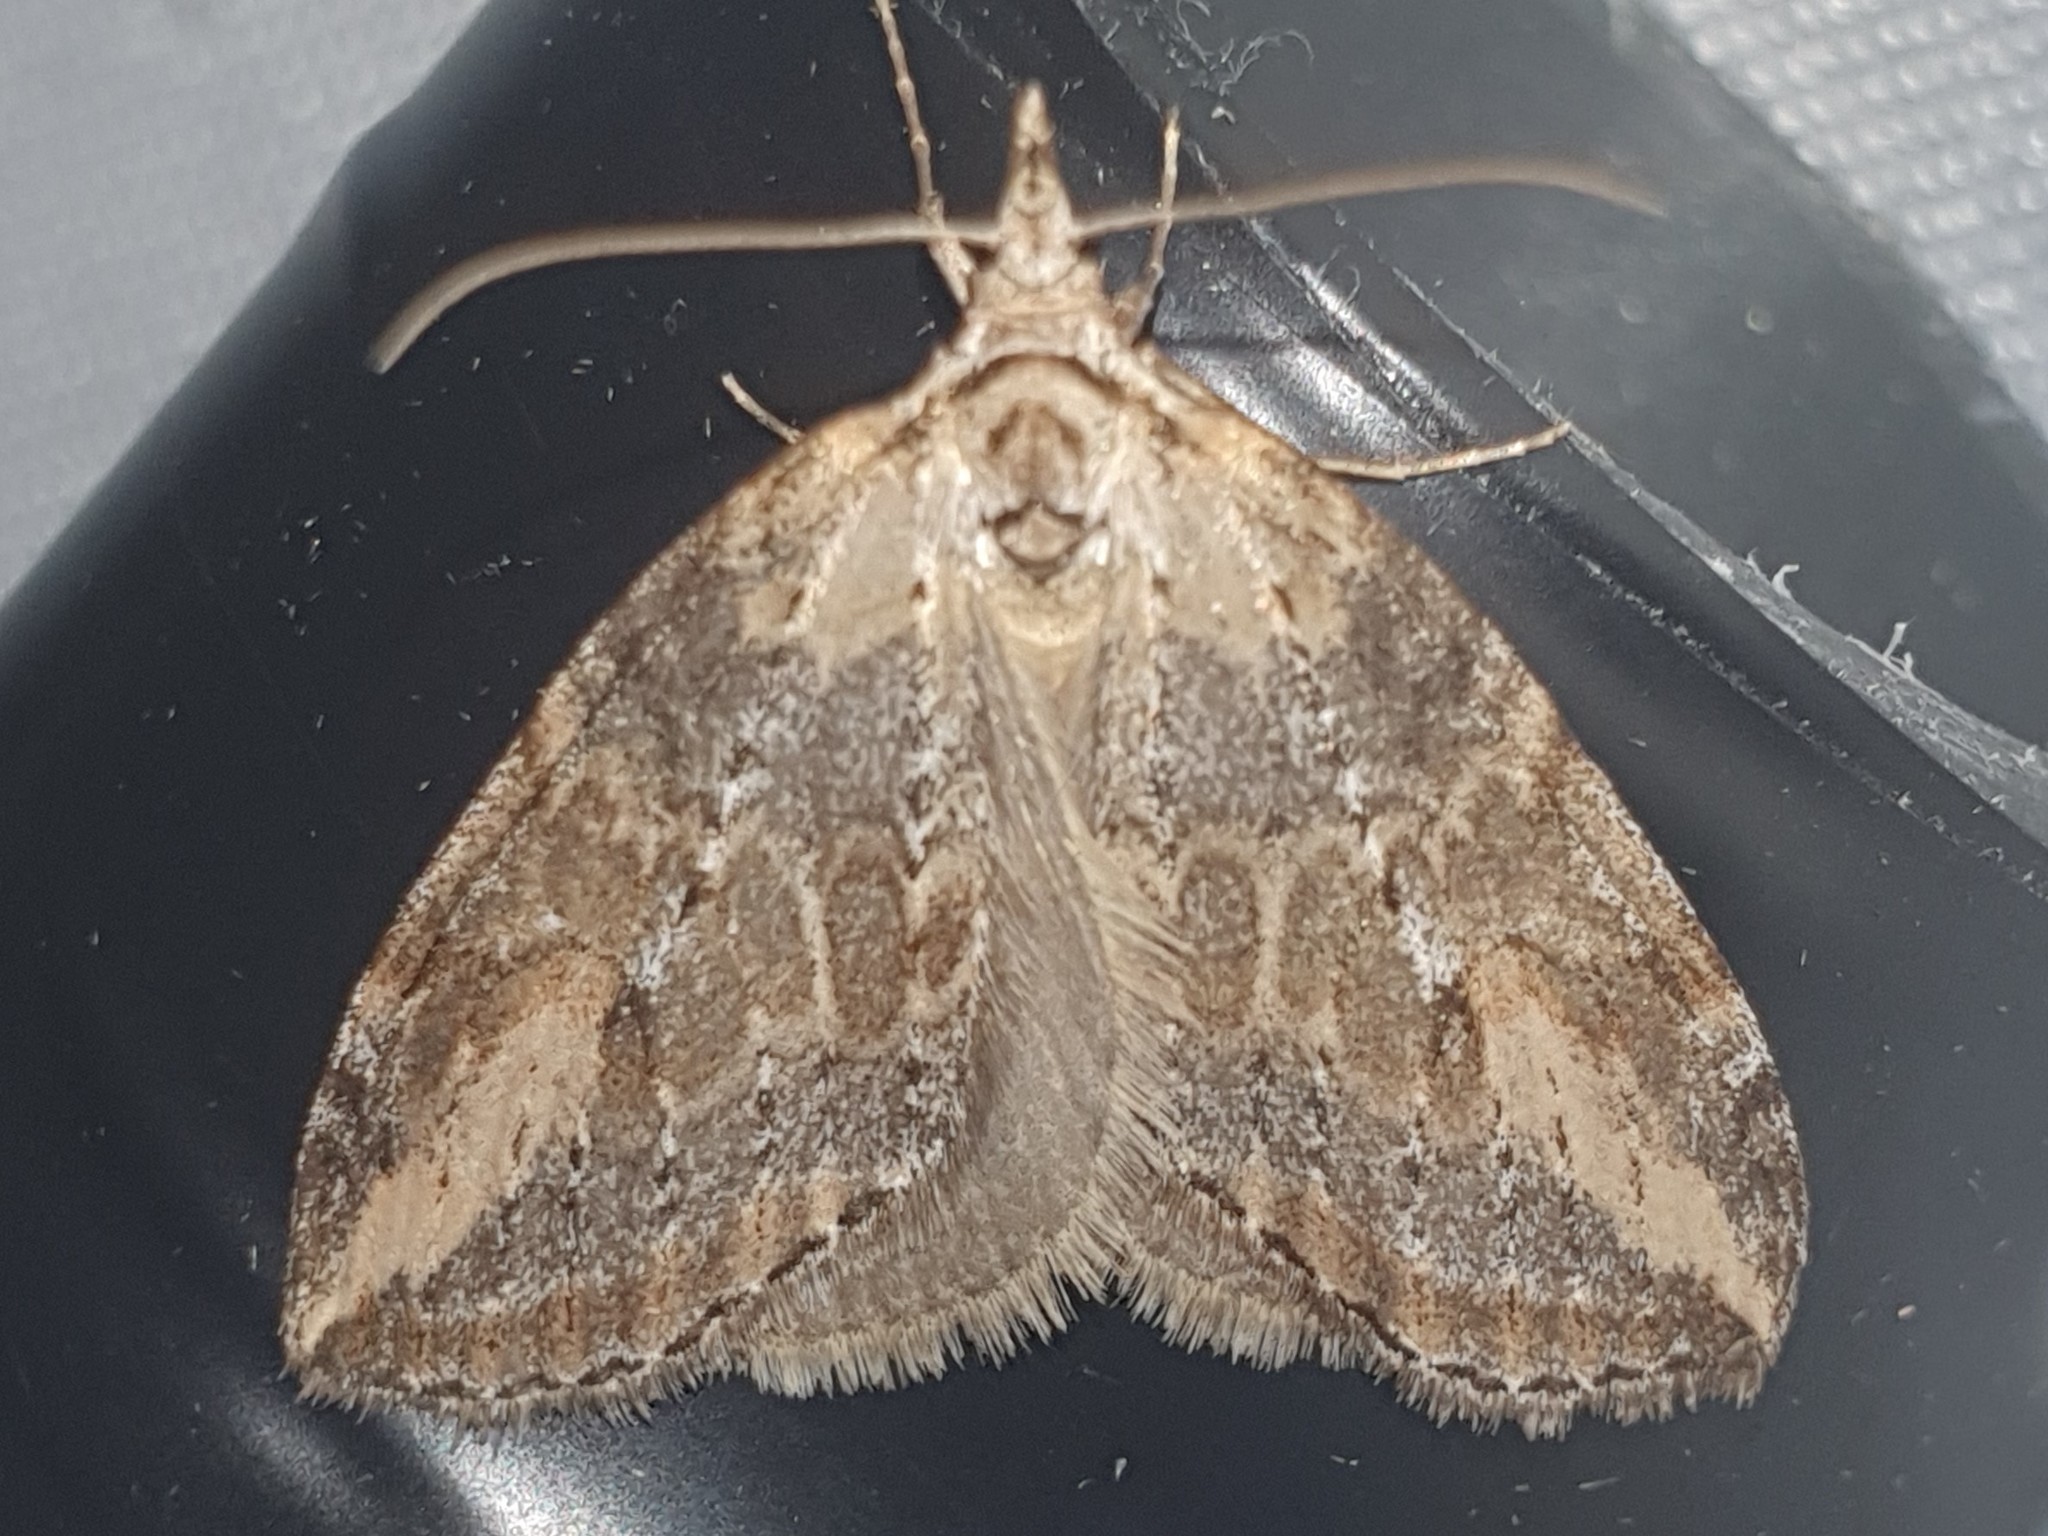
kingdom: Animalia
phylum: Arthropoda
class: Insecta
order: Lepidoptera
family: Geometridae
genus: Chesias
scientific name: Chesias isabella
